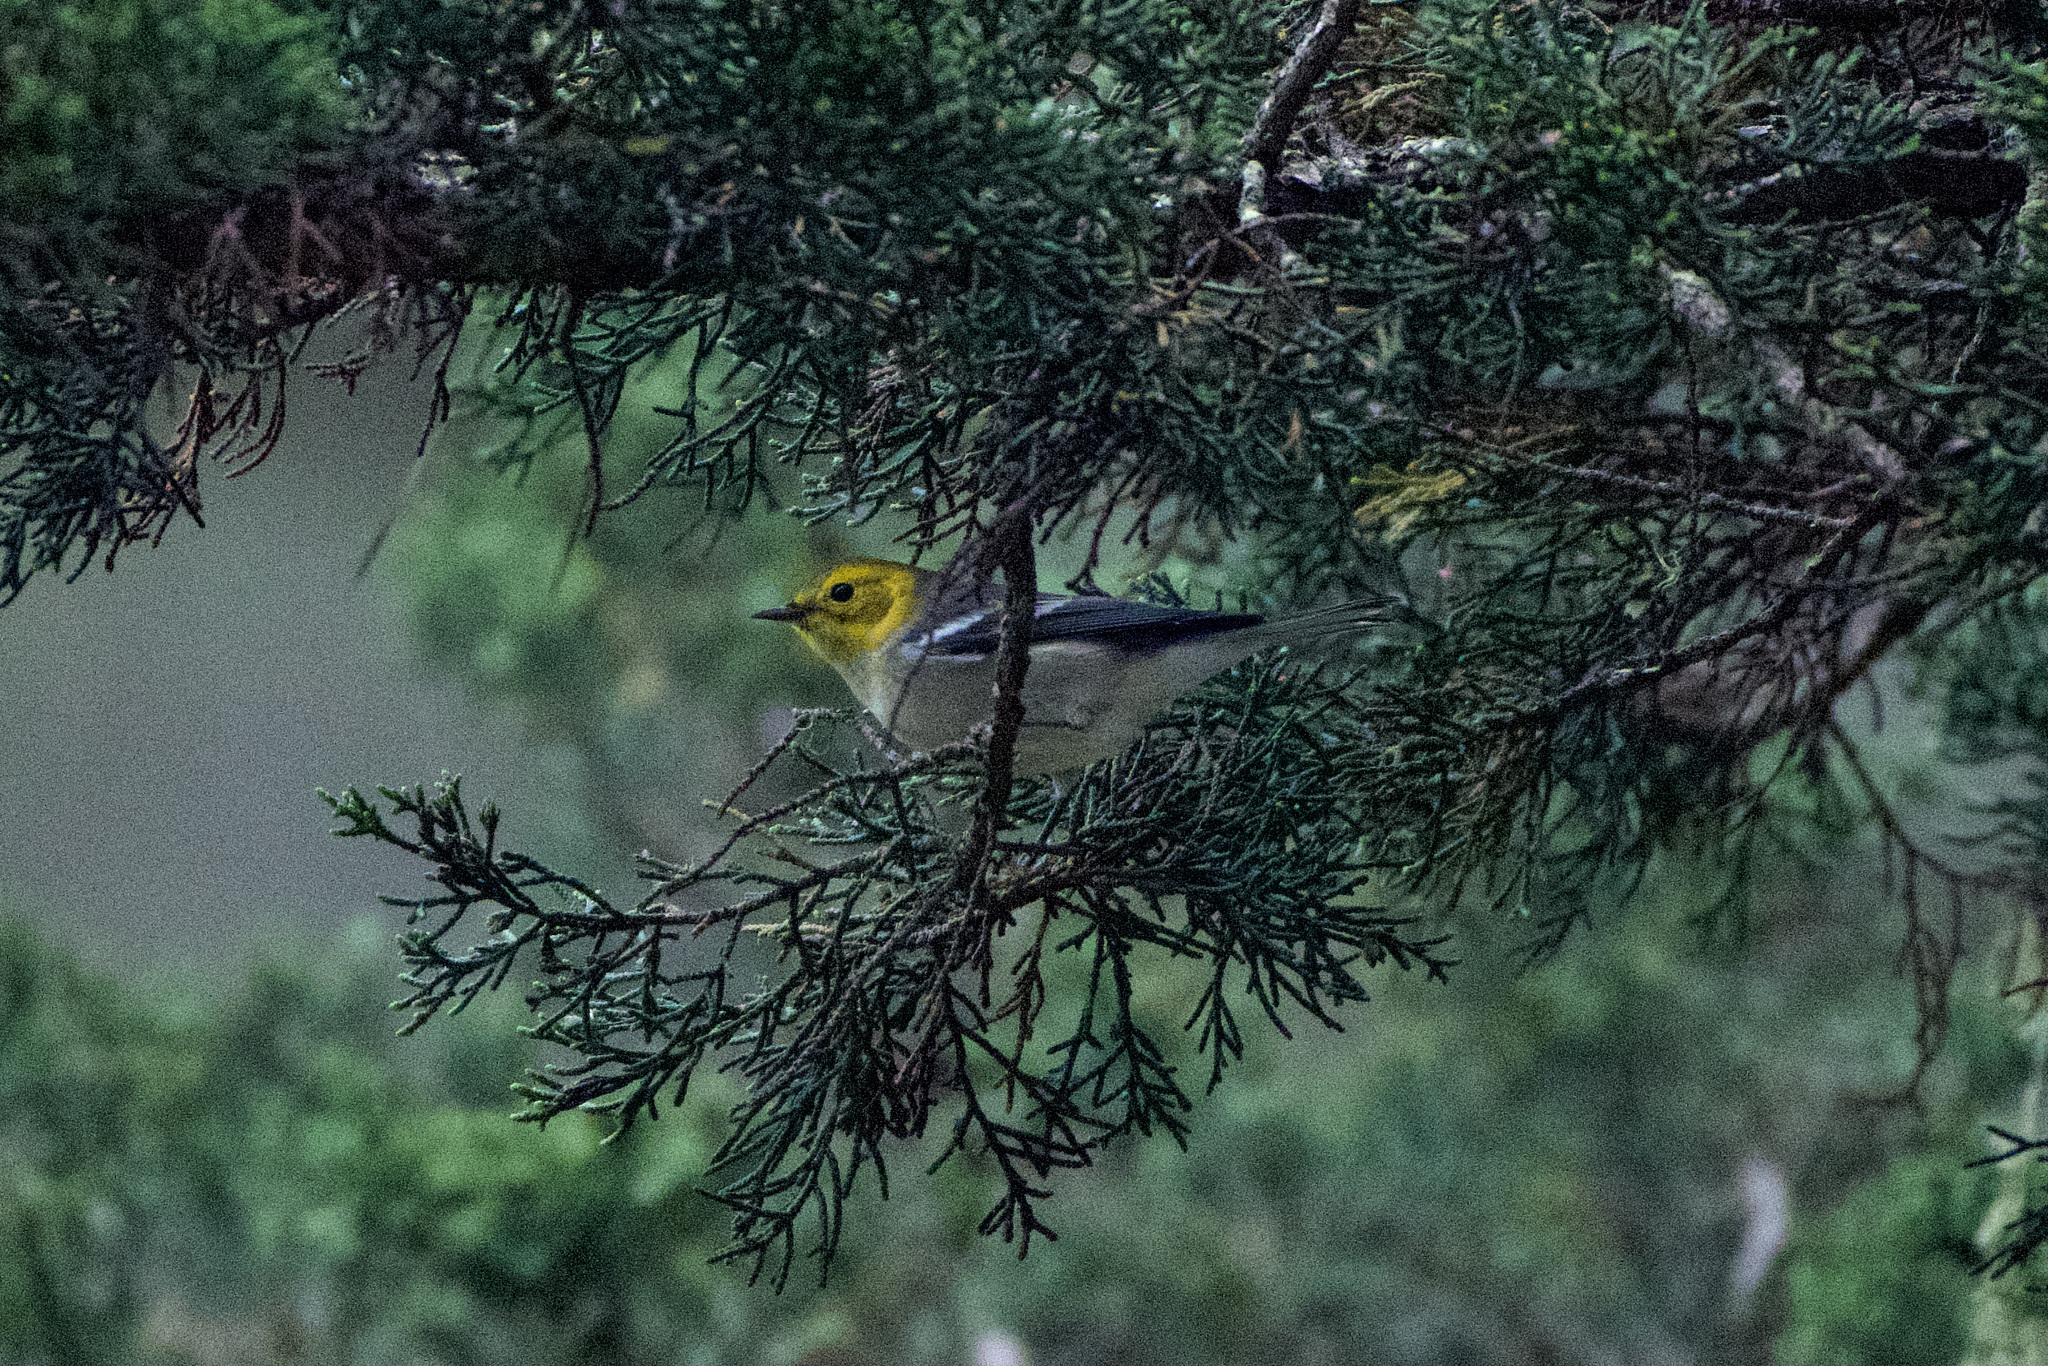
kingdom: Animalia
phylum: Chordata
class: Aves
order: Passeriformes
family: Parulidae
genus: Setophaga
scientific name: Setophaga occidentalis
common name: Hermit warbler
